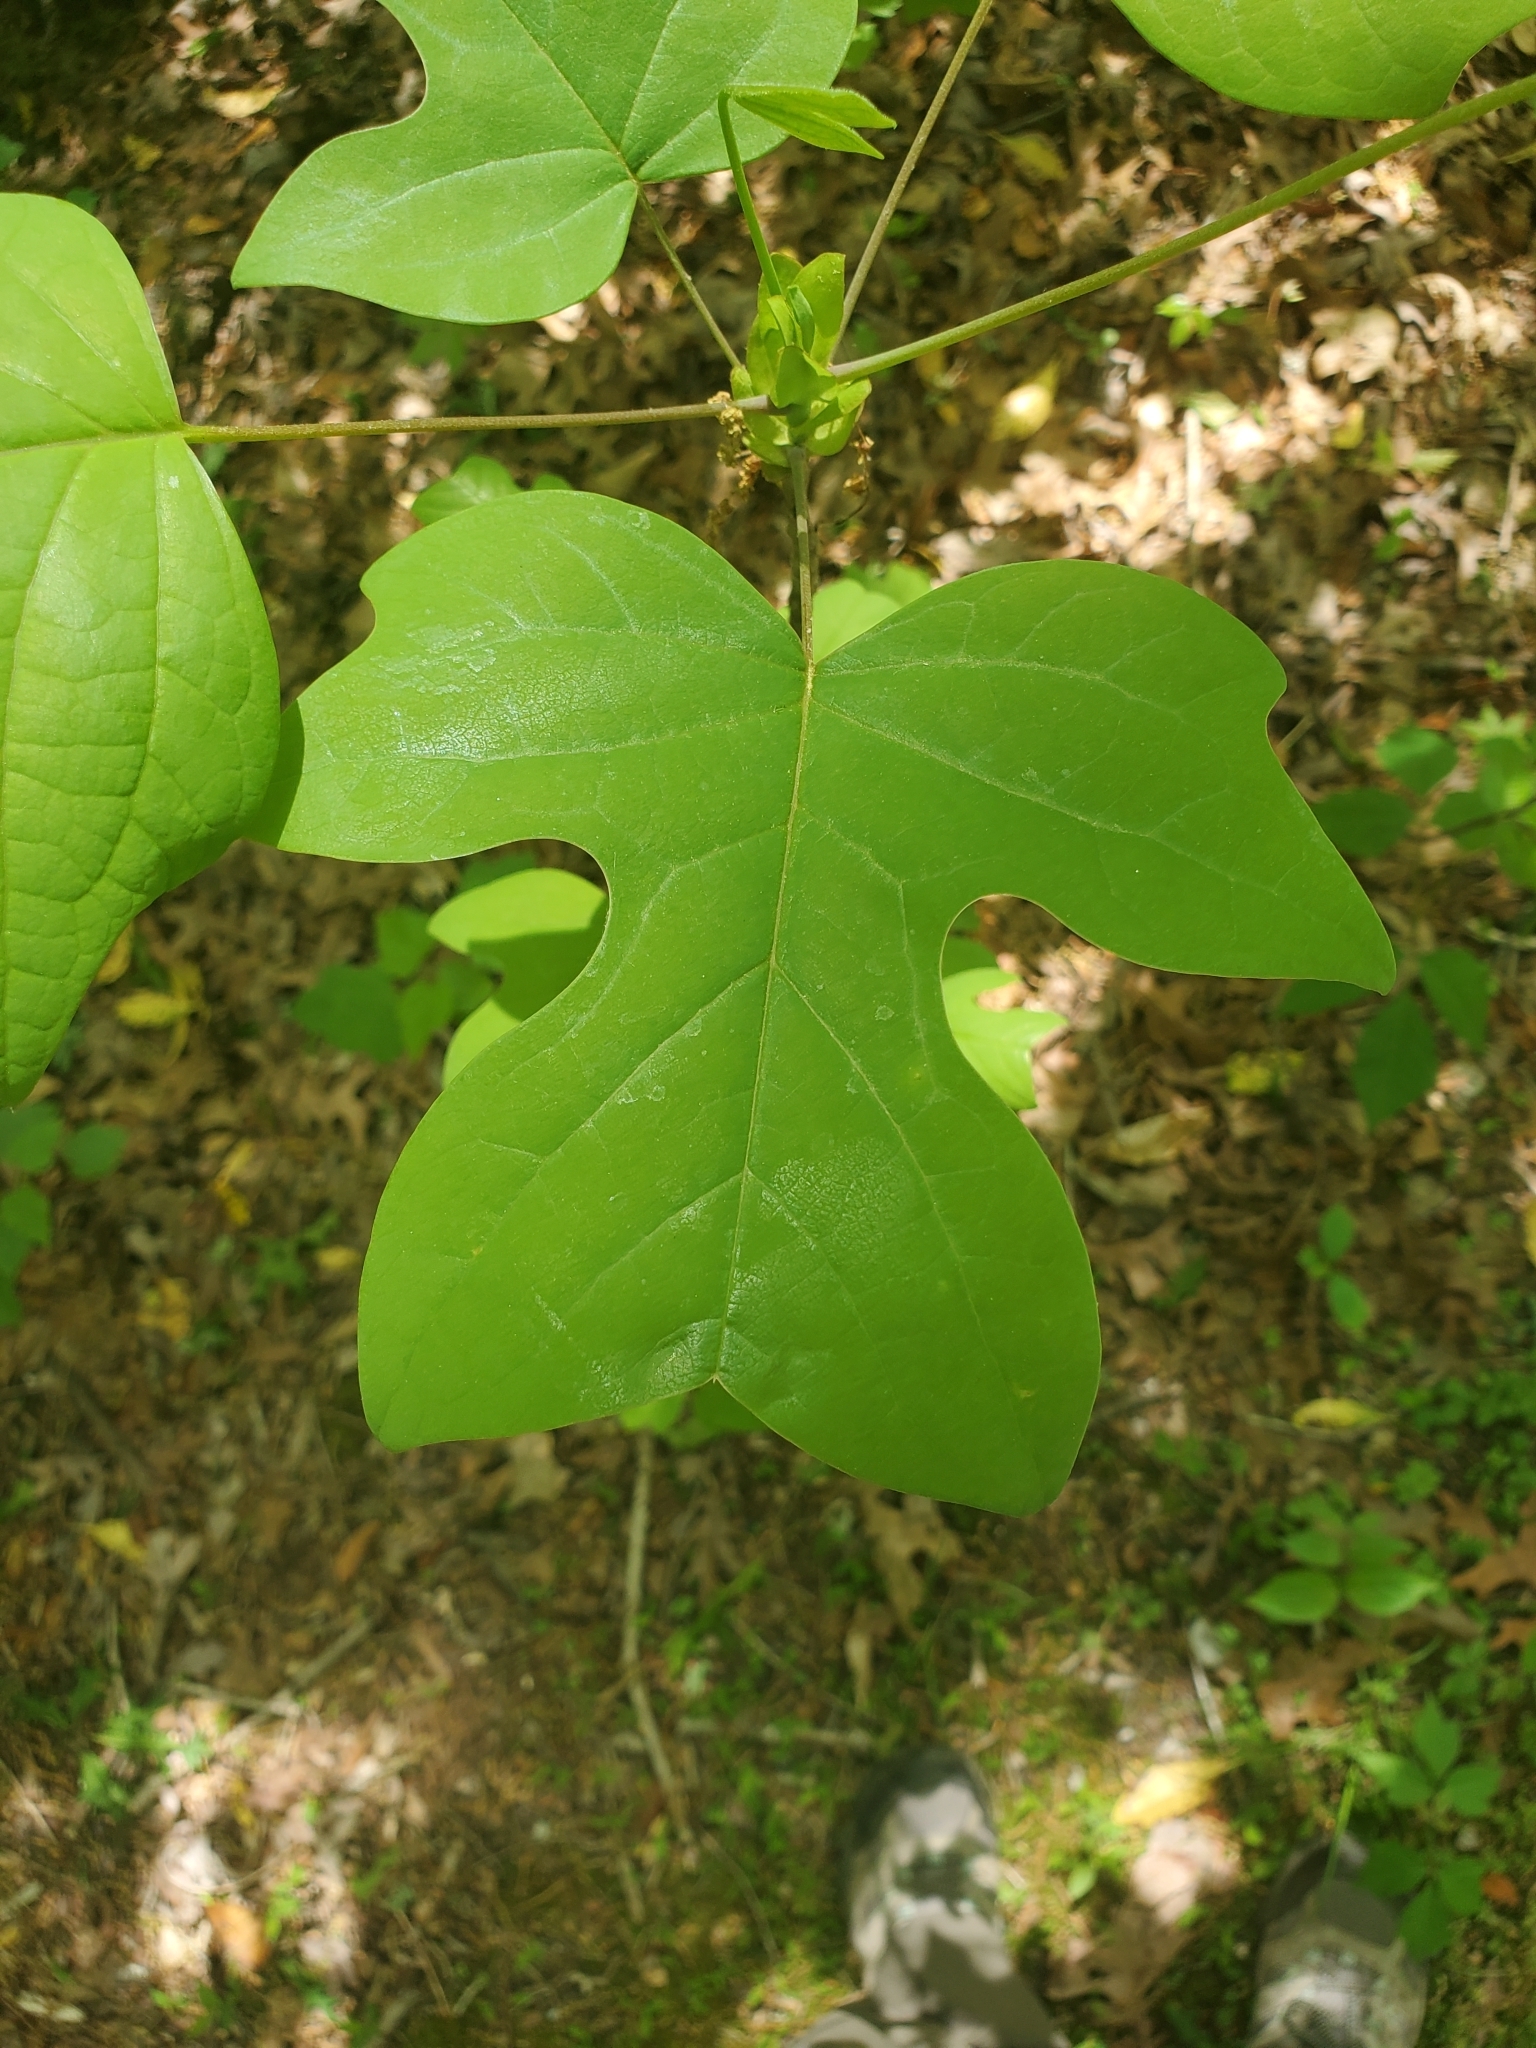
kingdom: Plantae
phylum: Tracheophyta
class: Magnoliopsida
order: Magnoliales
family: Magnoliaceae
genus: Liriodendron
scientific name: Liriodendron tulipifera
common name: Tulip tree
